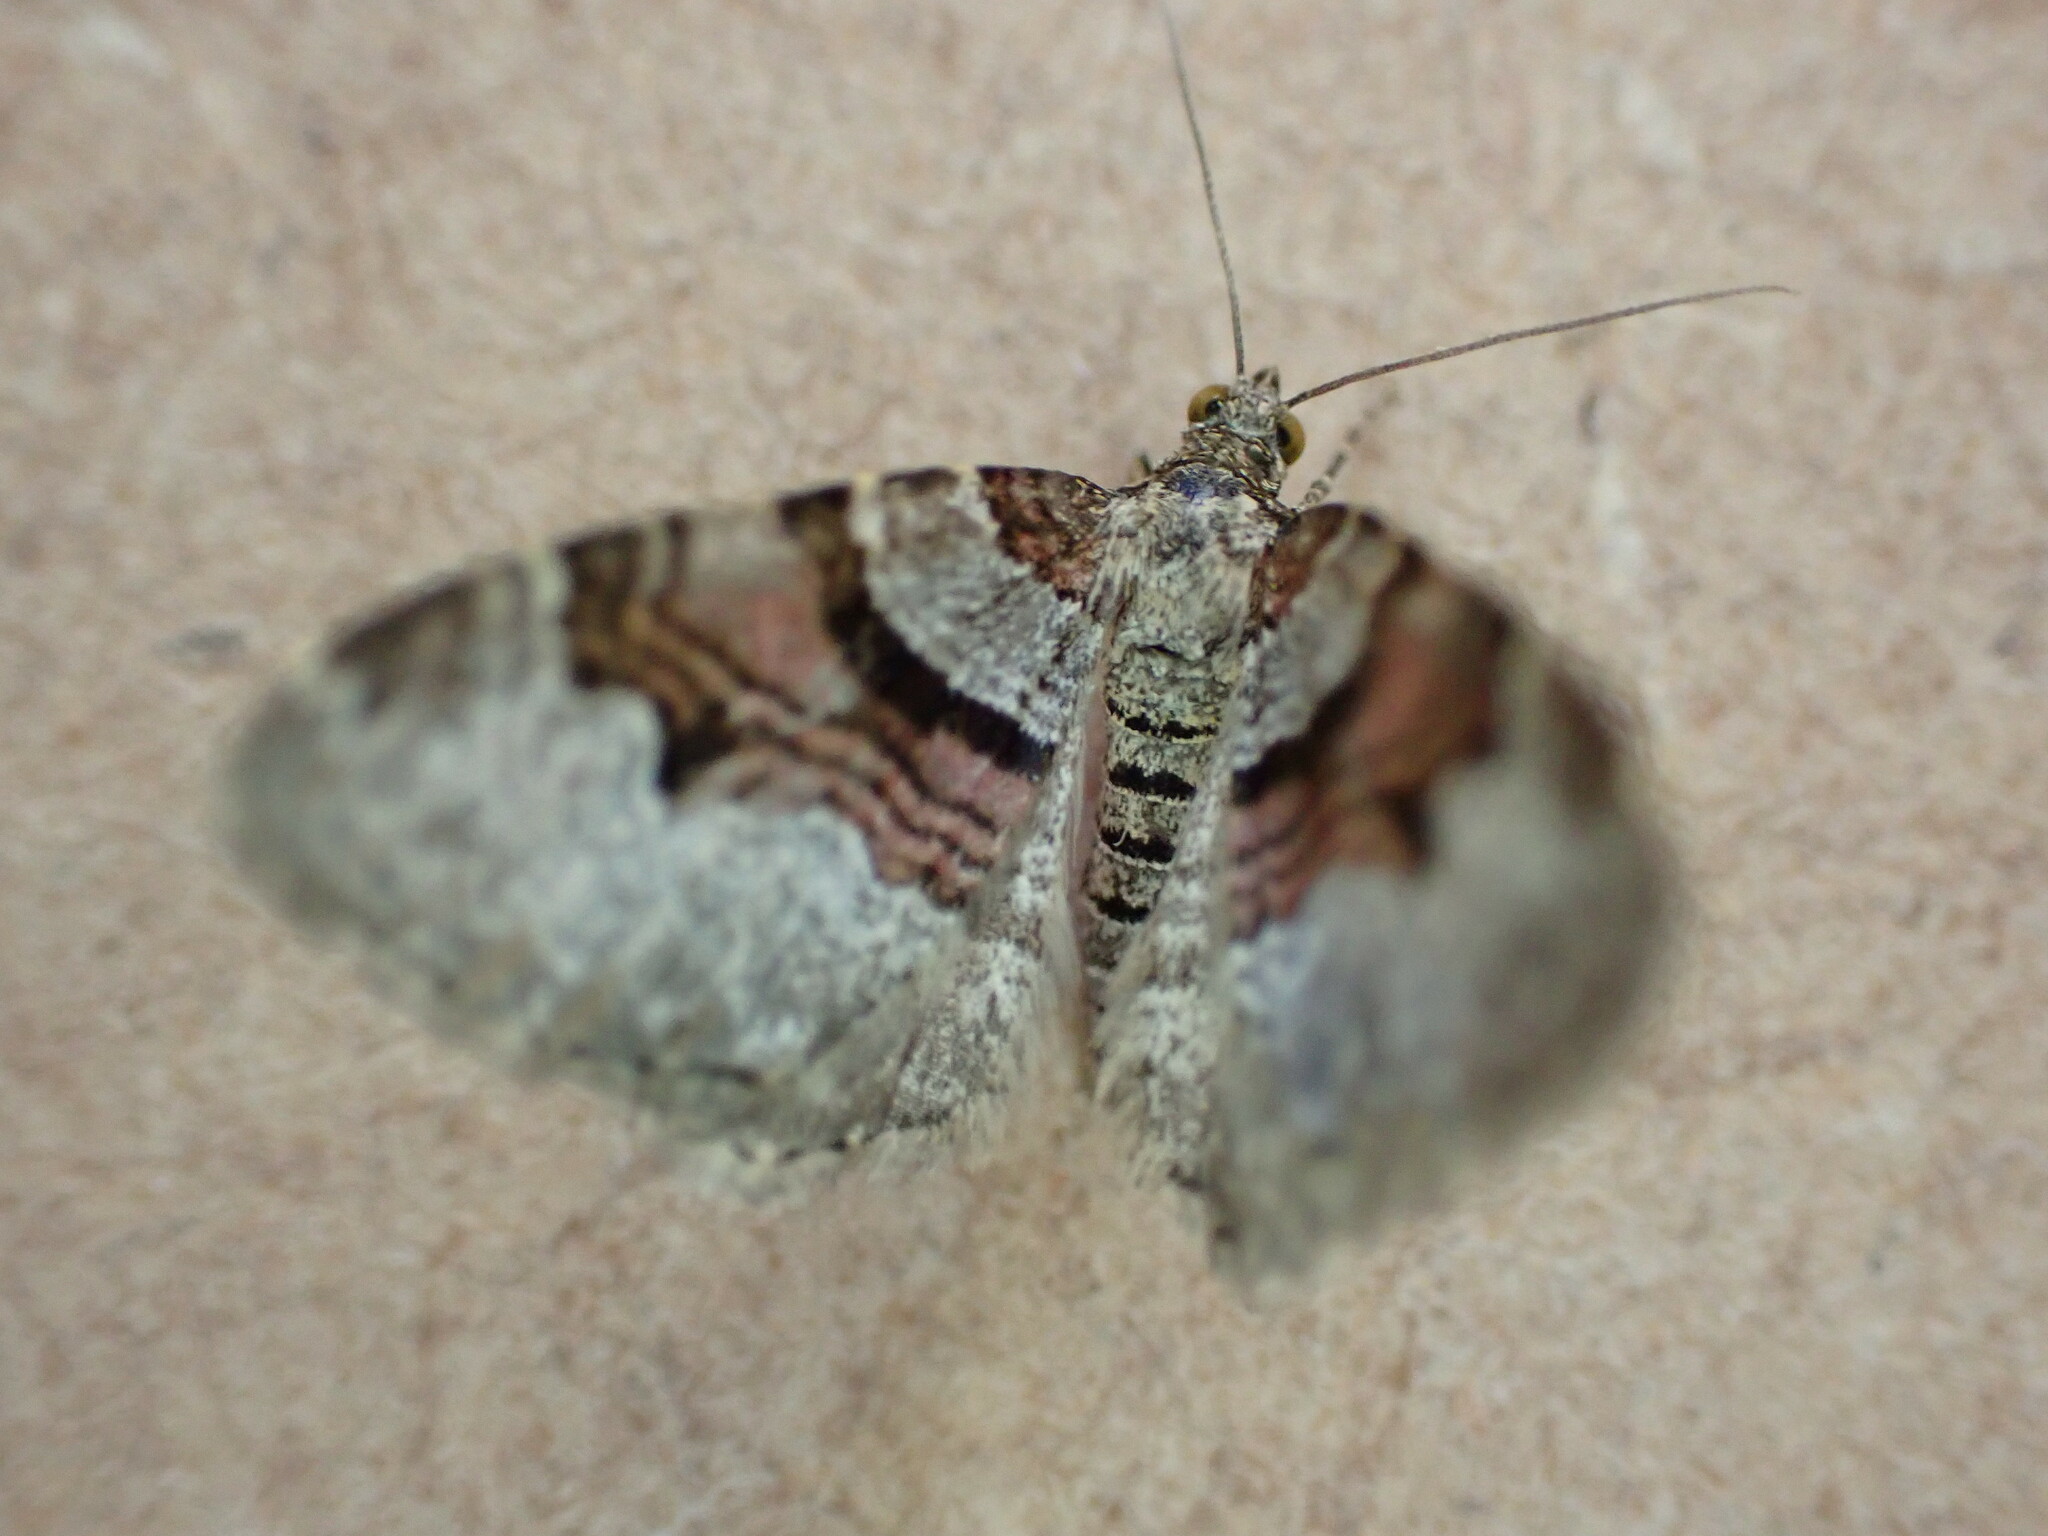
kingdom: Animalia
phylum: Arthropoda
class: Insecta
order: Lepidoptera
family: Geometridae
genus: Xanthorhoe
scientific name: Xanthorhoe designata
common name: Flame carpet
